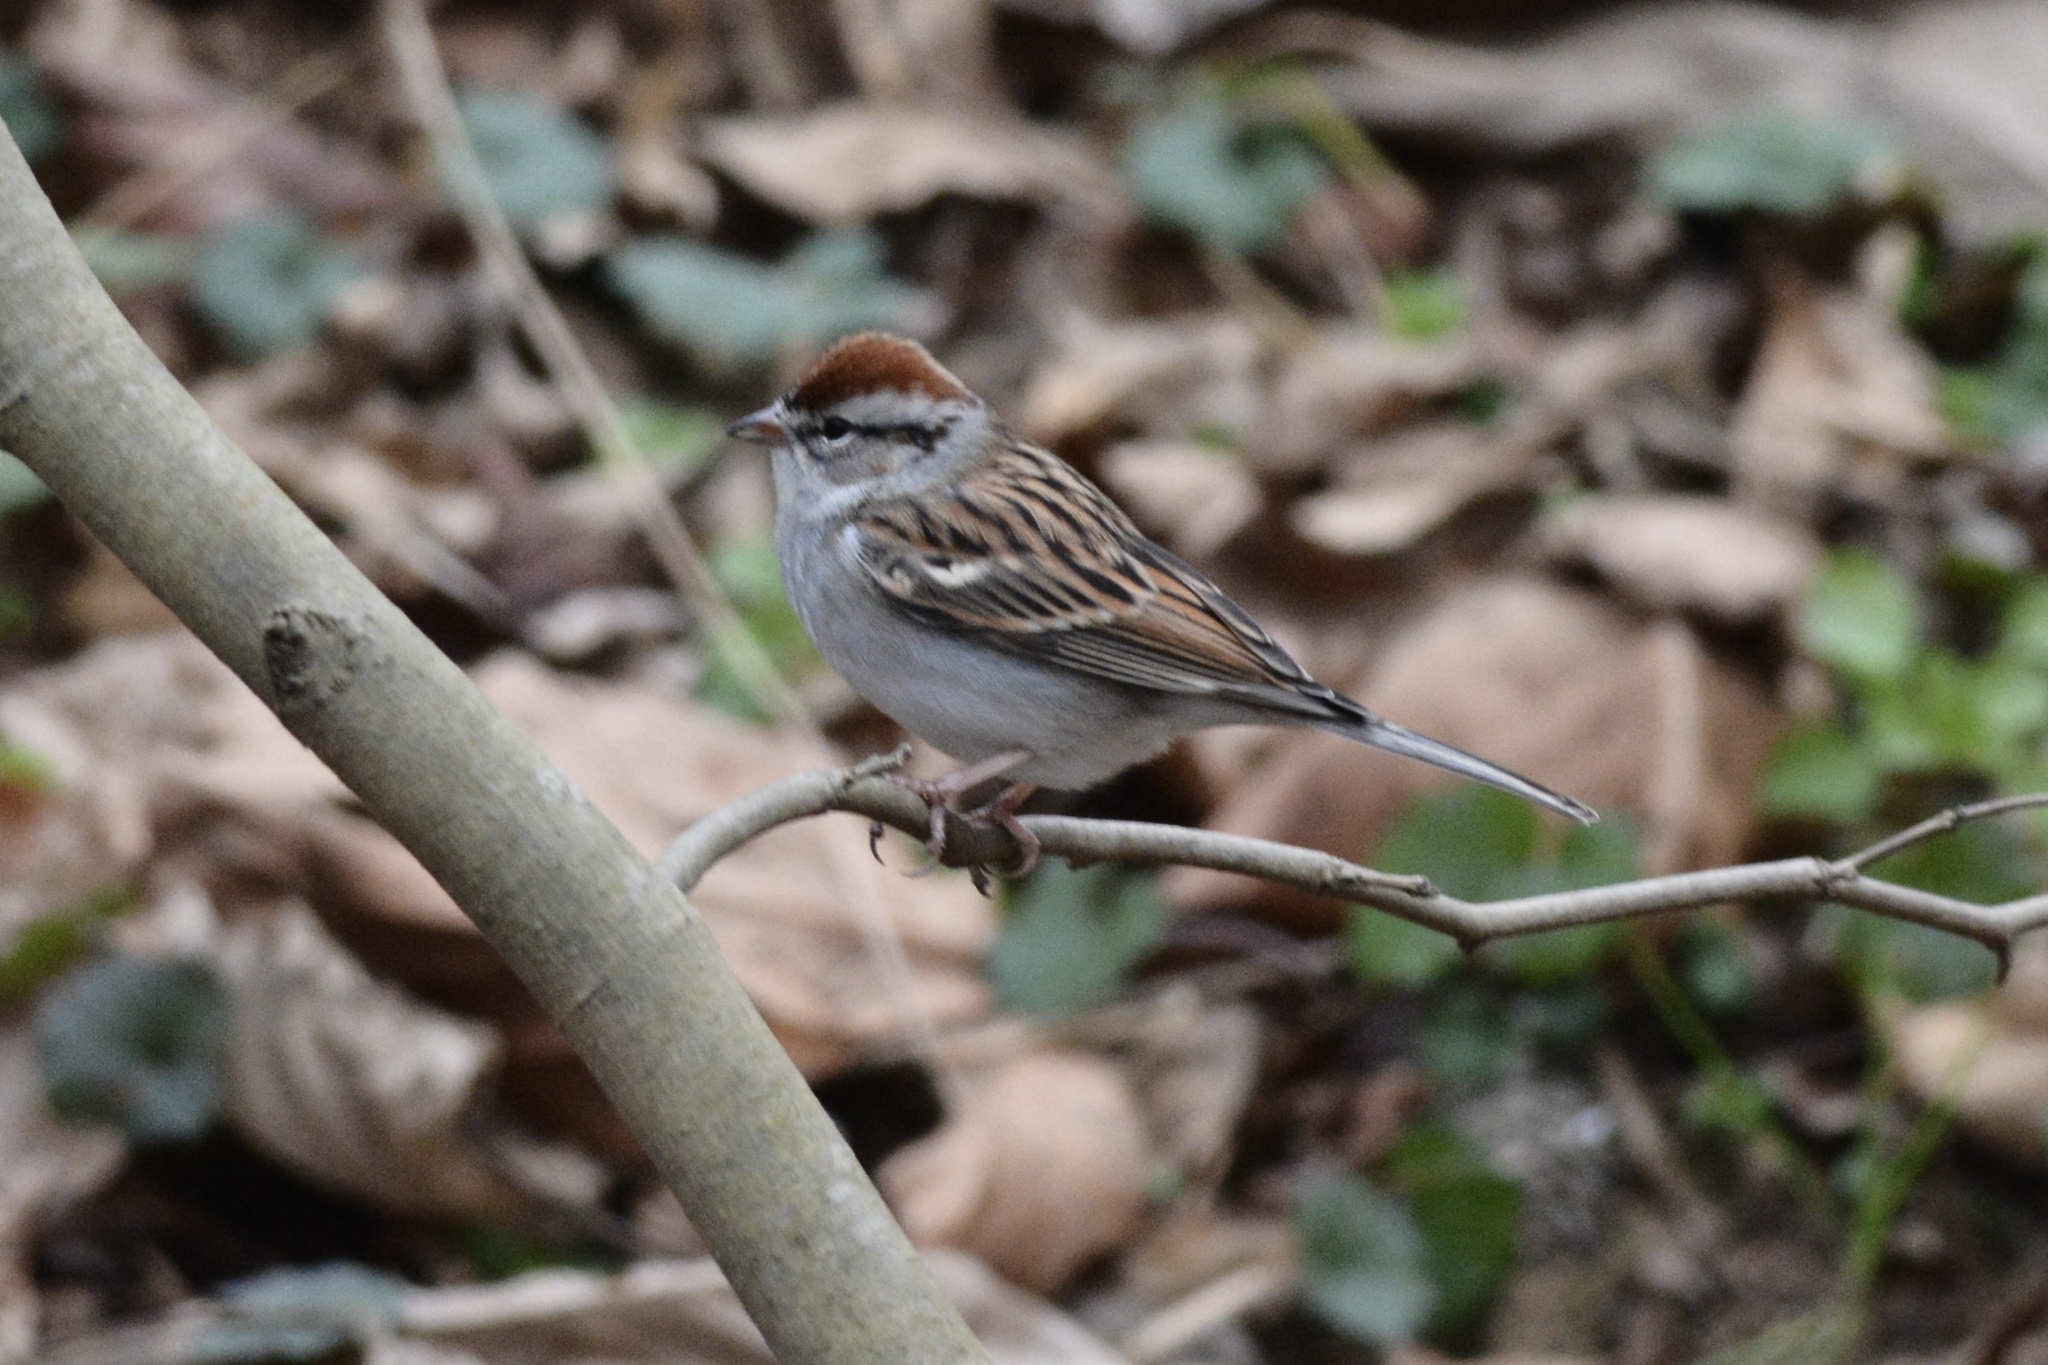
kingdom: Animalia
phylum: Chordata
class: Aves
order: Passeriformes
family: Passerellidae
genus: Spizella
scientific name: Spizella passerina
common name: Chipping sparrow
